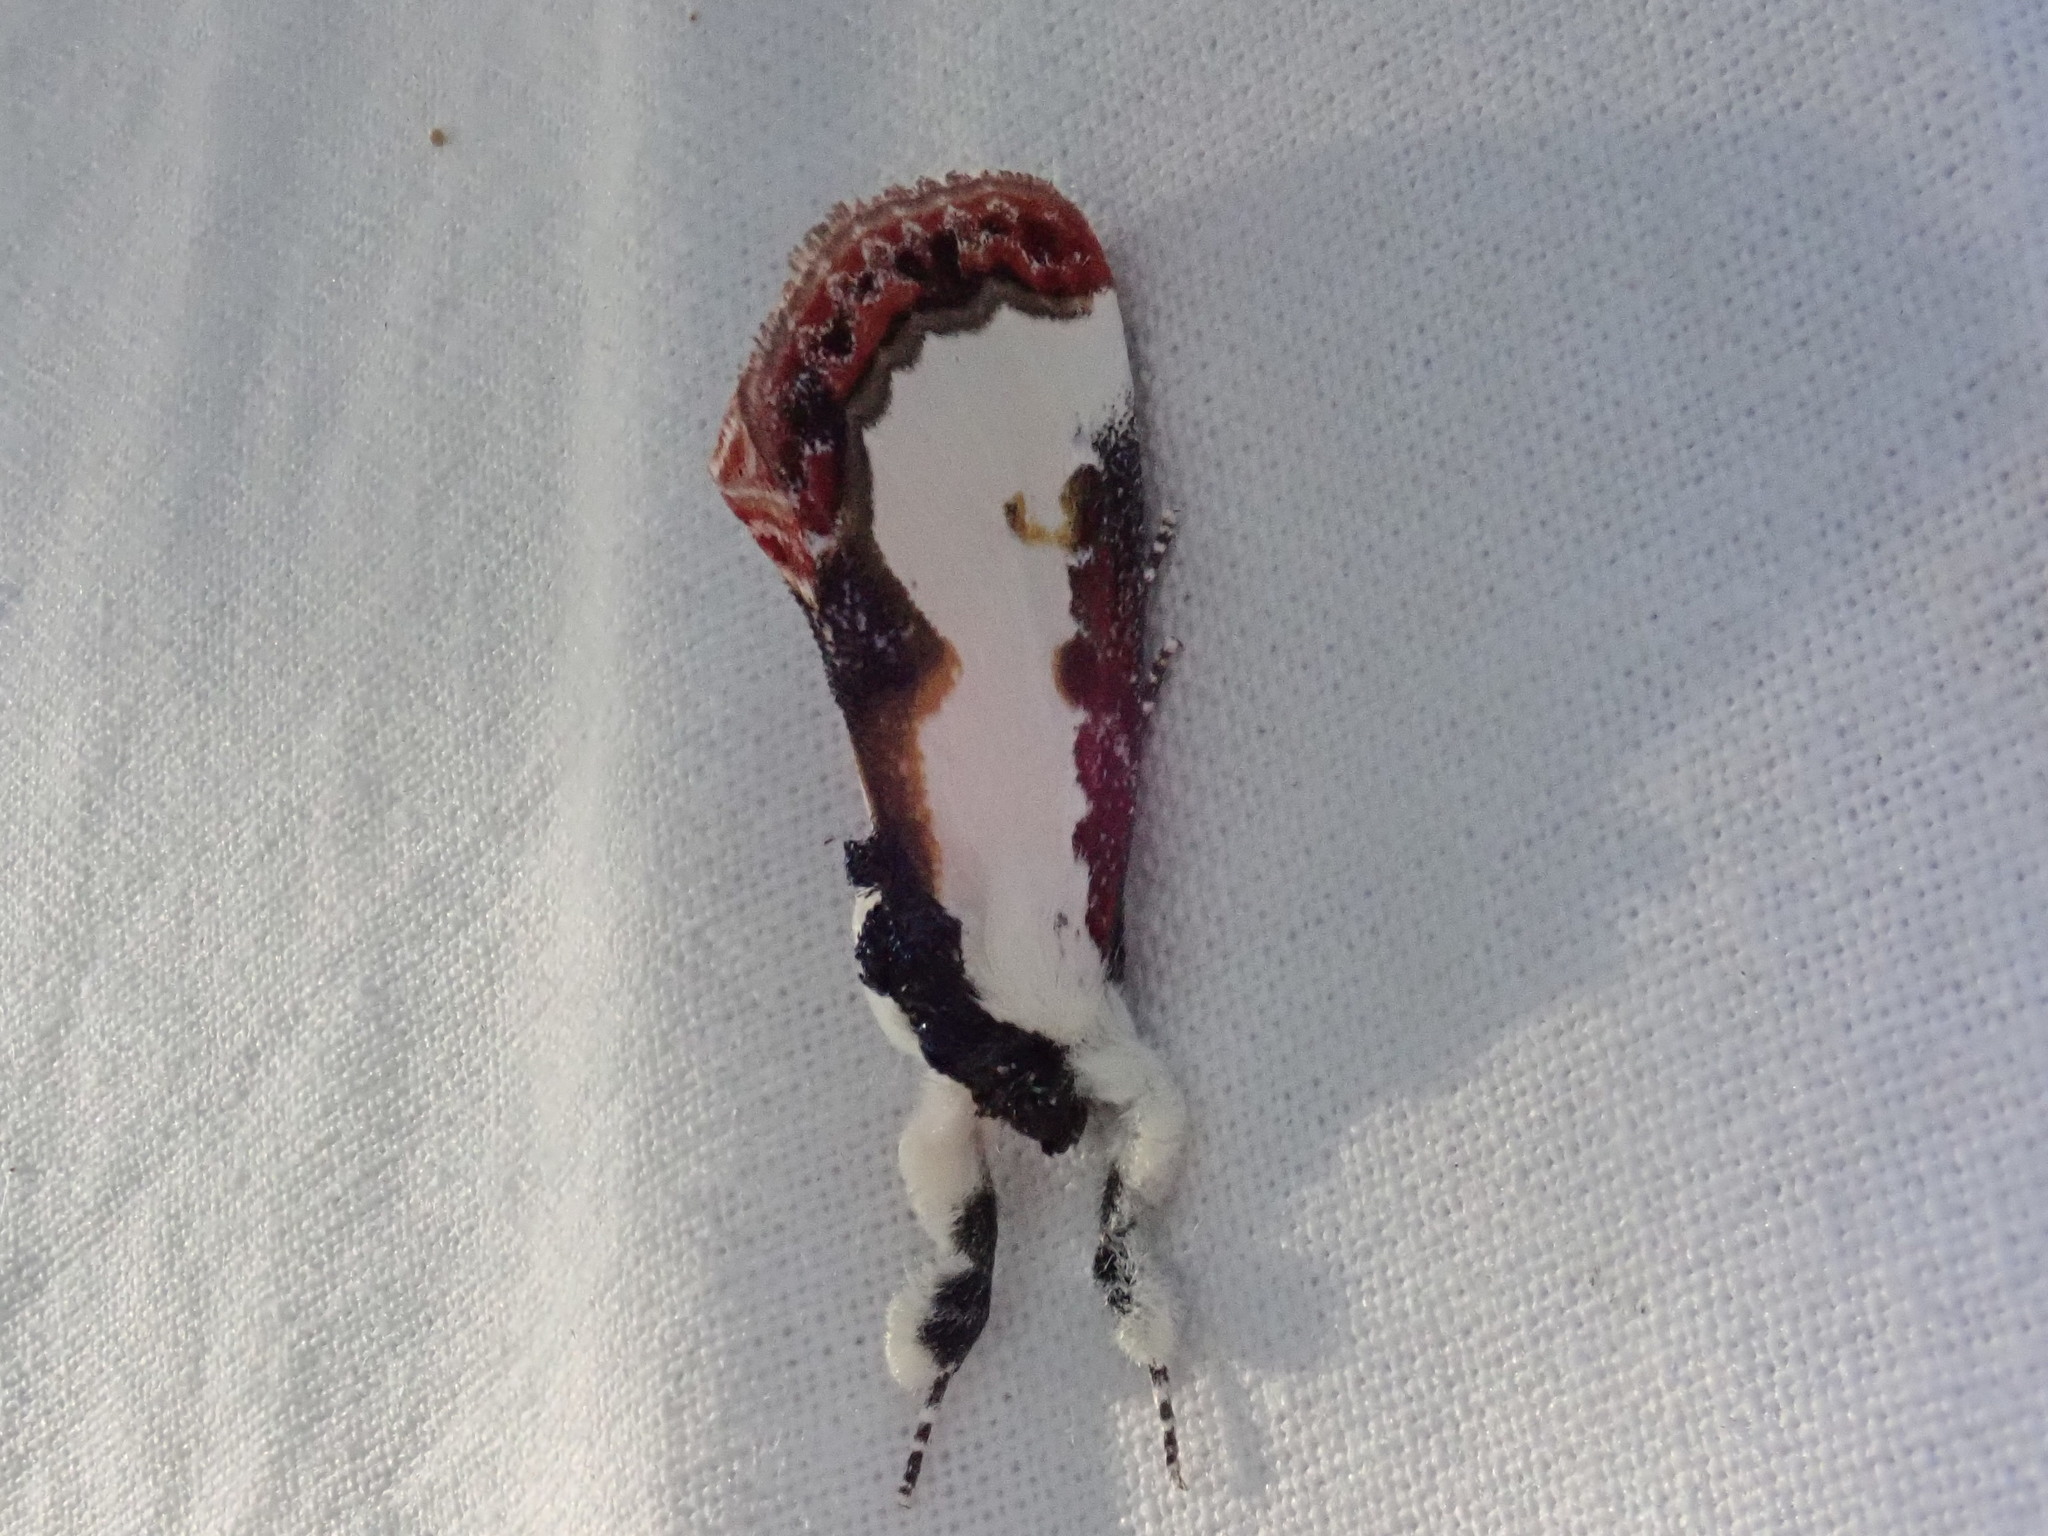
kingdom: Animalia
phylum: Arthropoda
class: Insecta
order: Lepidoptera
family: Noctuidae
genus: Eudryas
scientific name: Eudryas unio
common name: Pearly wood-nymph
